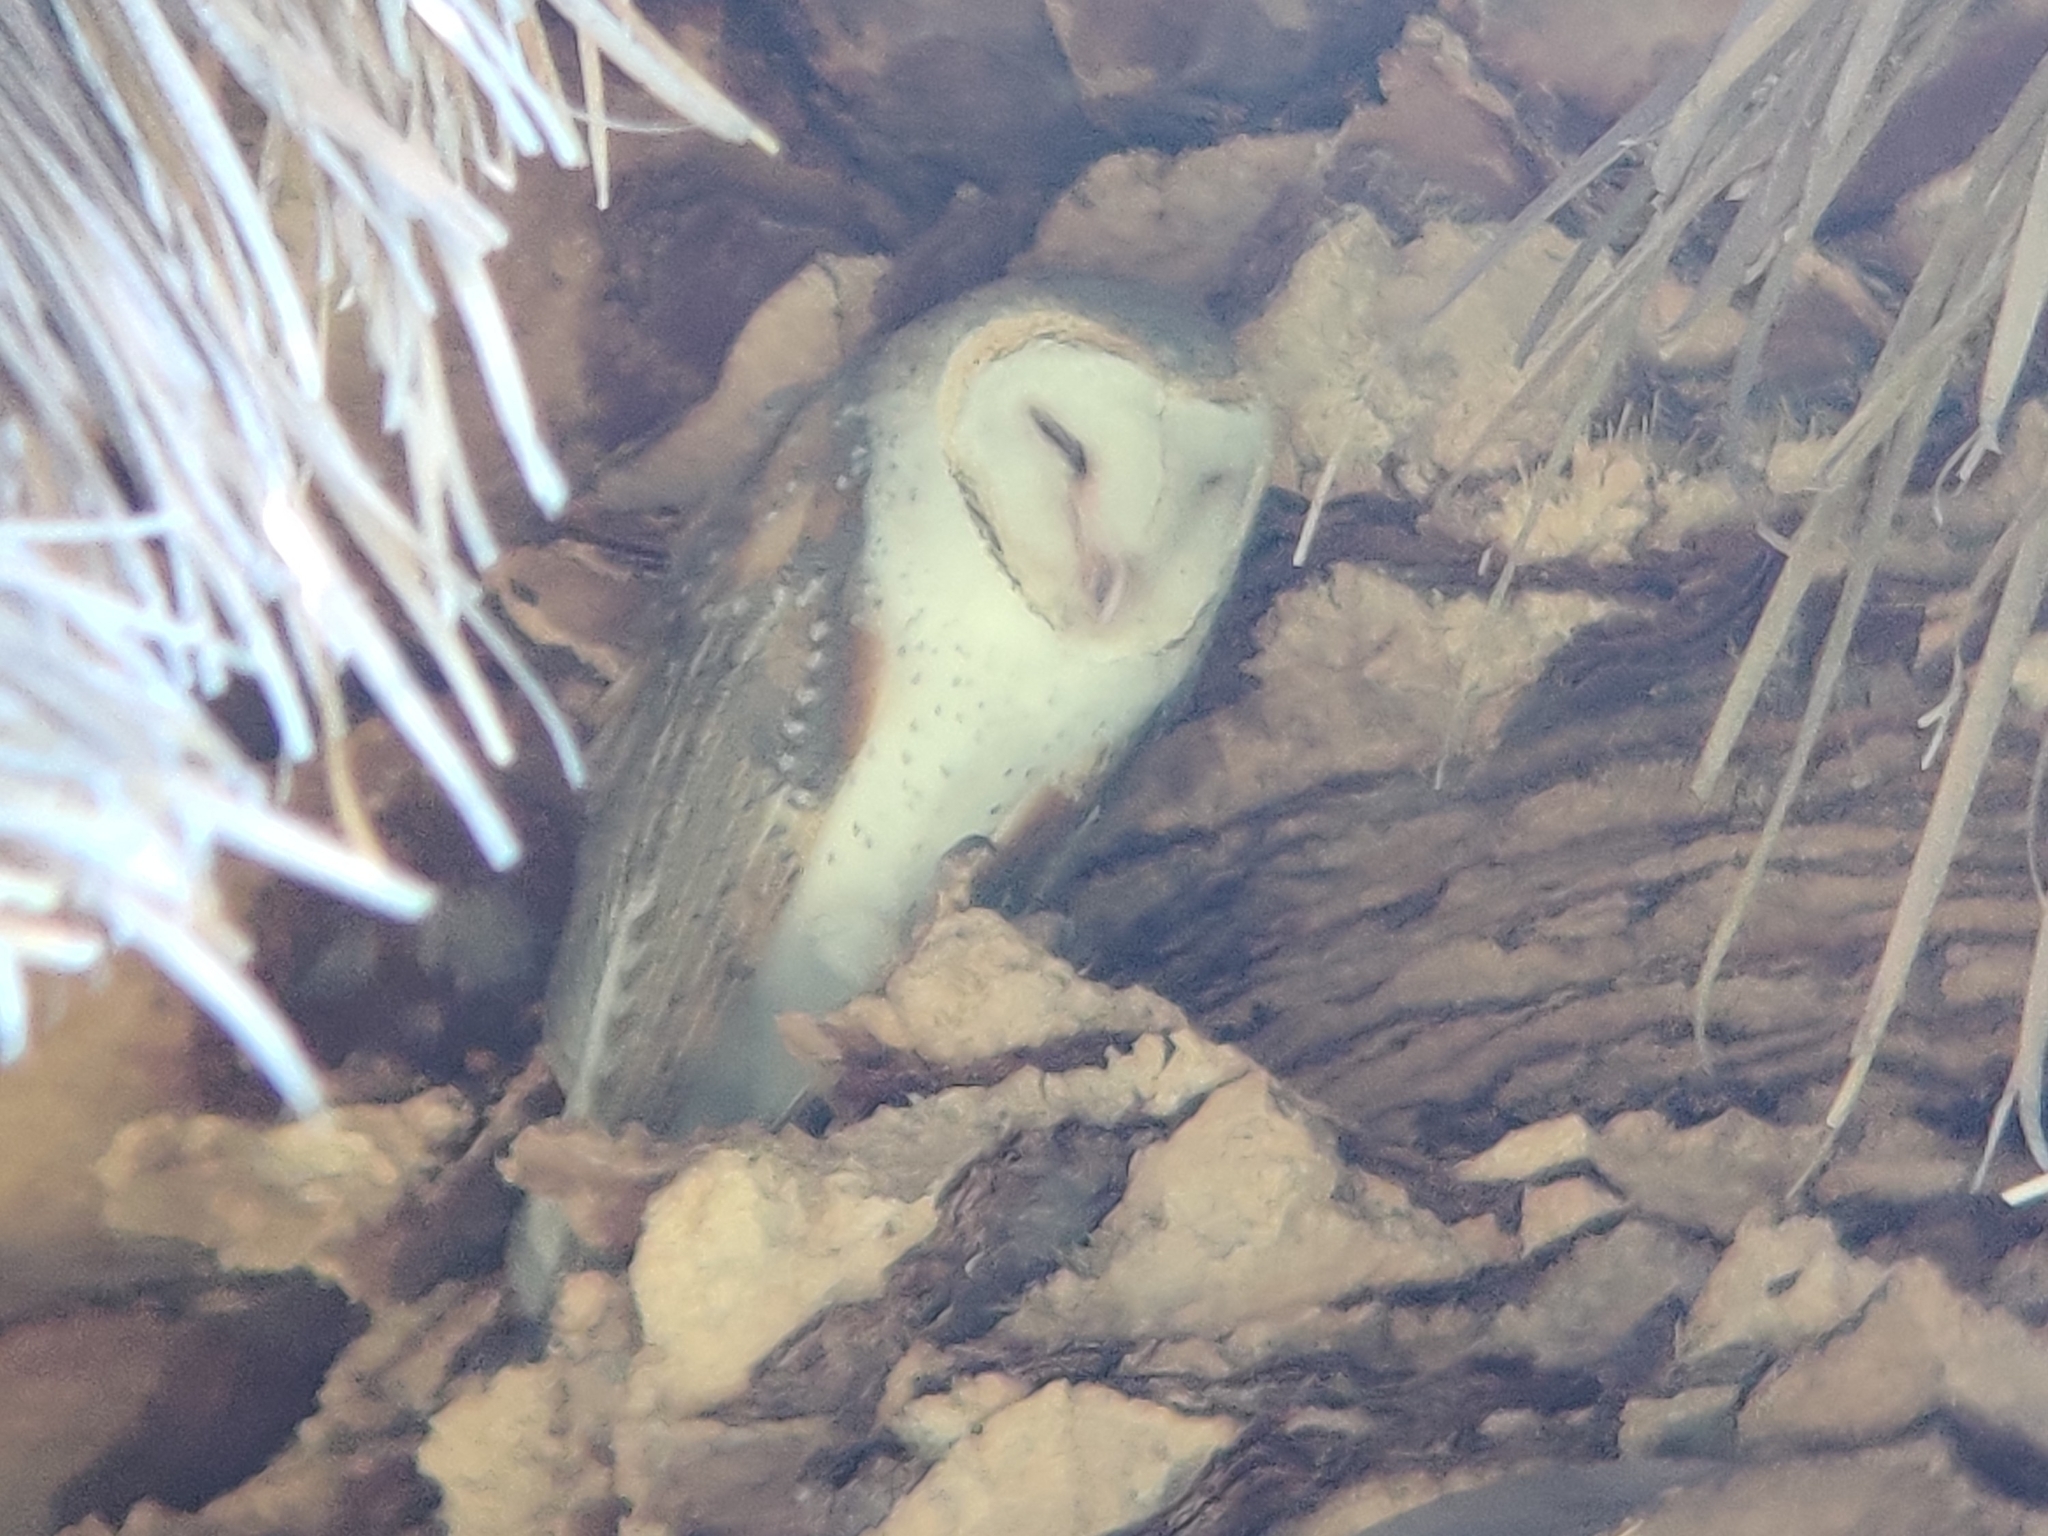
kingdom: Animalia
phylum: Chordata
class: Aves
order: Strigiformes
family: Tytonidae
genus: Tyto
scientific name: Tyto alba
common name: Barn owl
